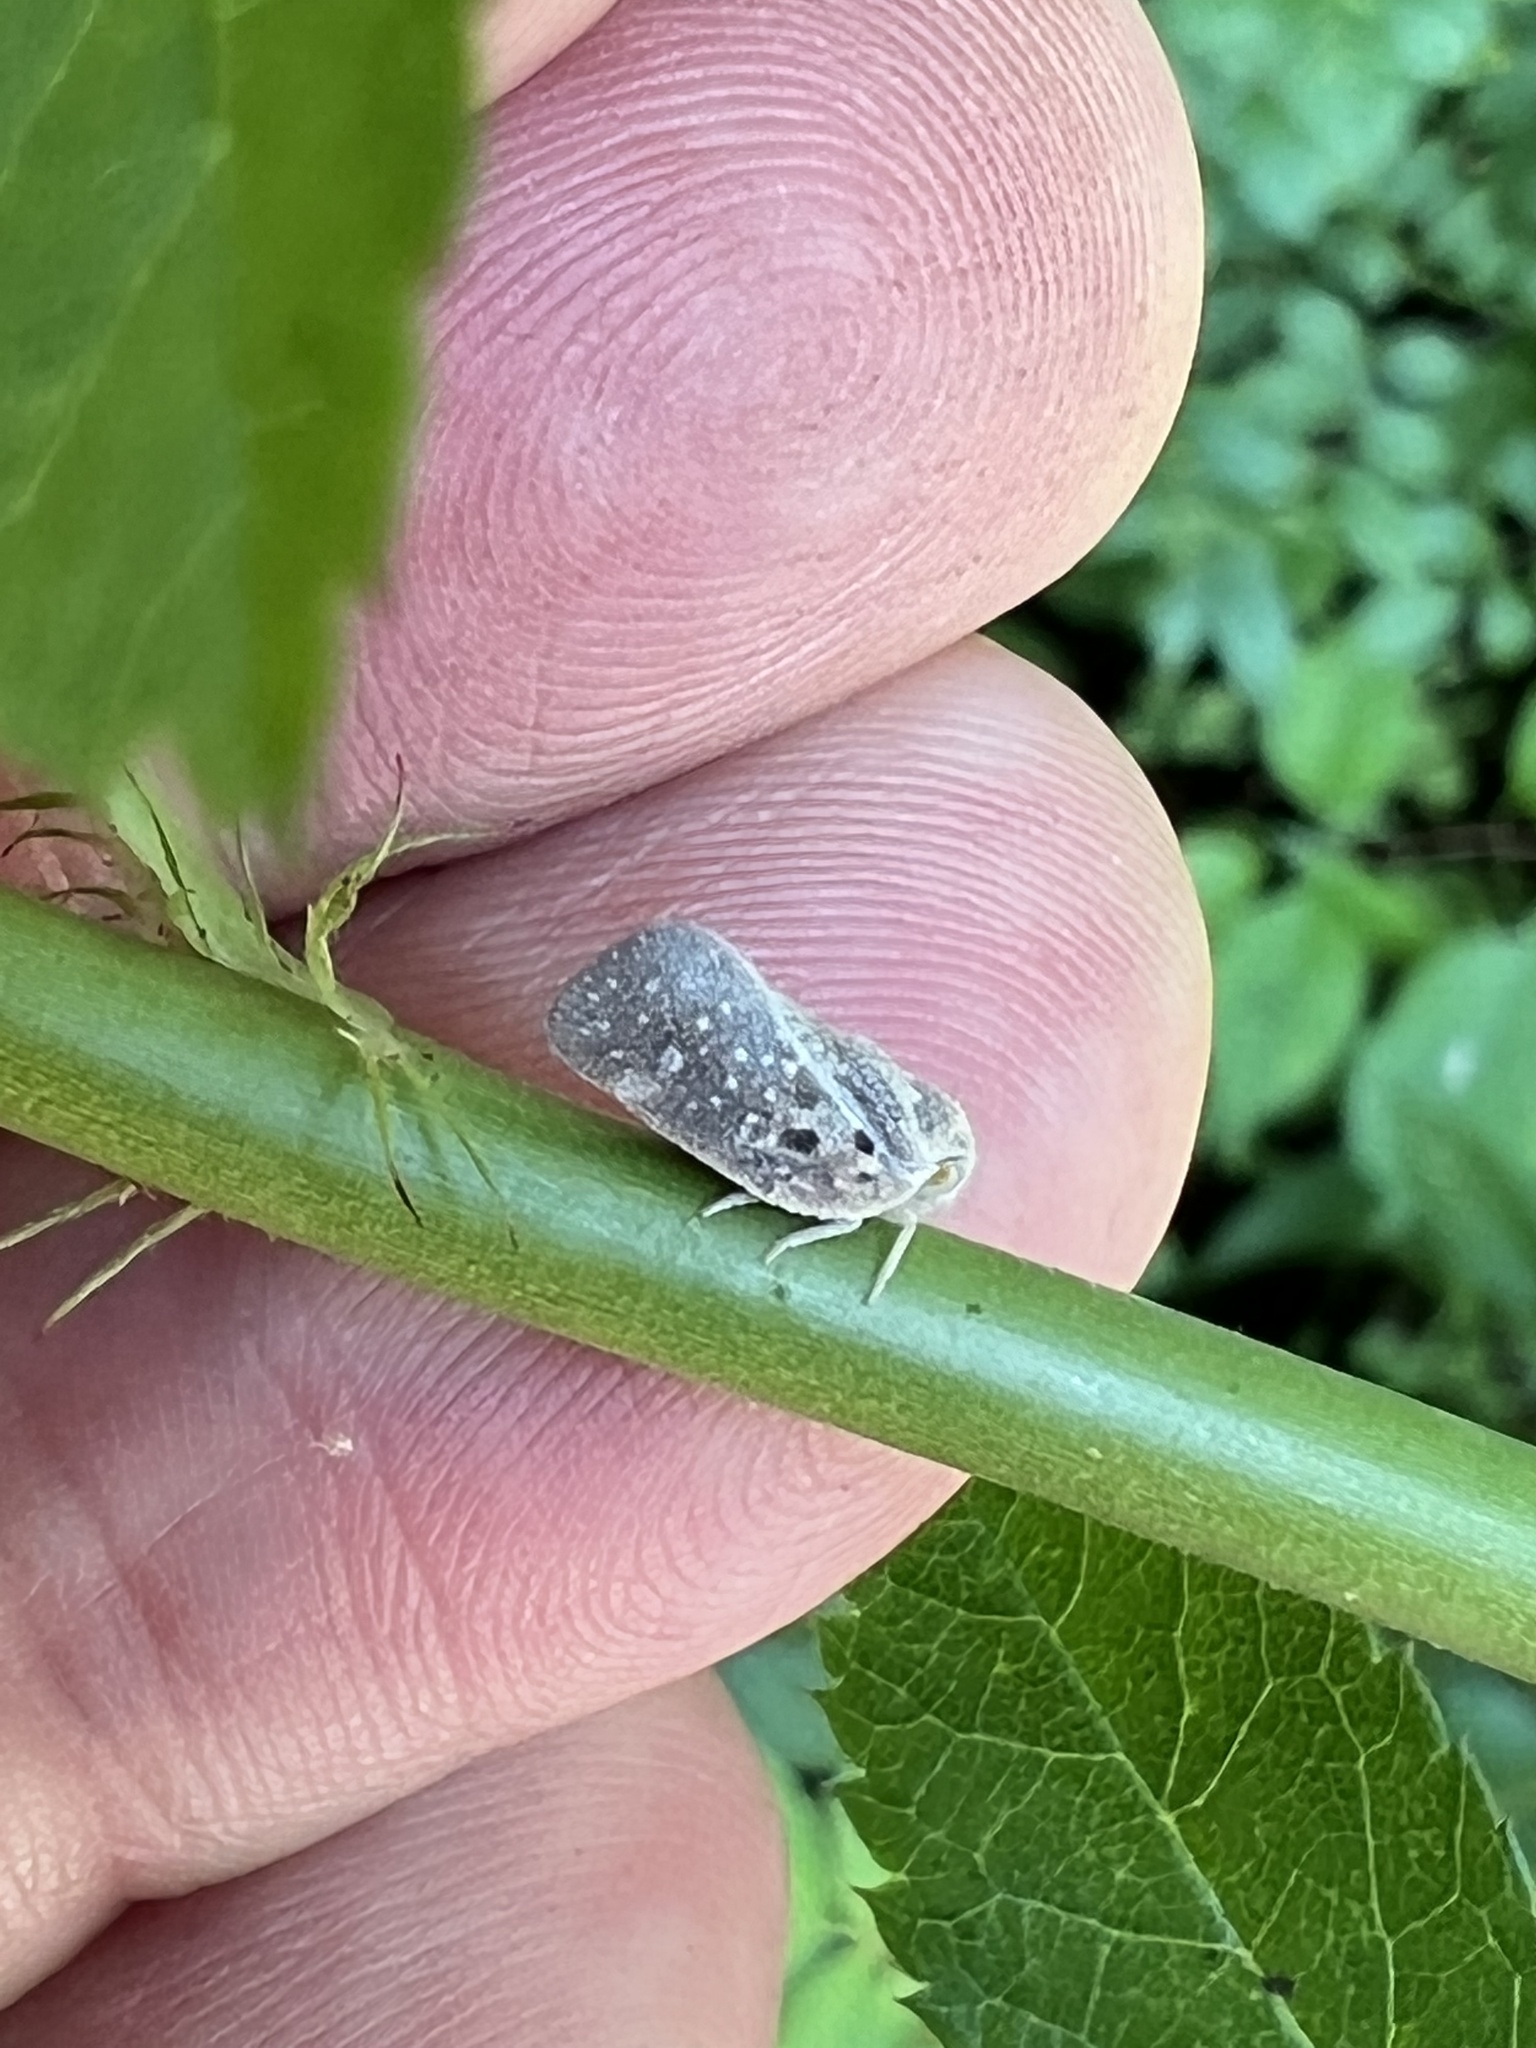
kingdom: Animalia
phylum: Arthropoda
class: Insecta
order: Hemiptera
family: Flatidae
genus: Metcalfa
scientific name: Metcalfa pruinosa
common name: Citrus flatid planthopper
